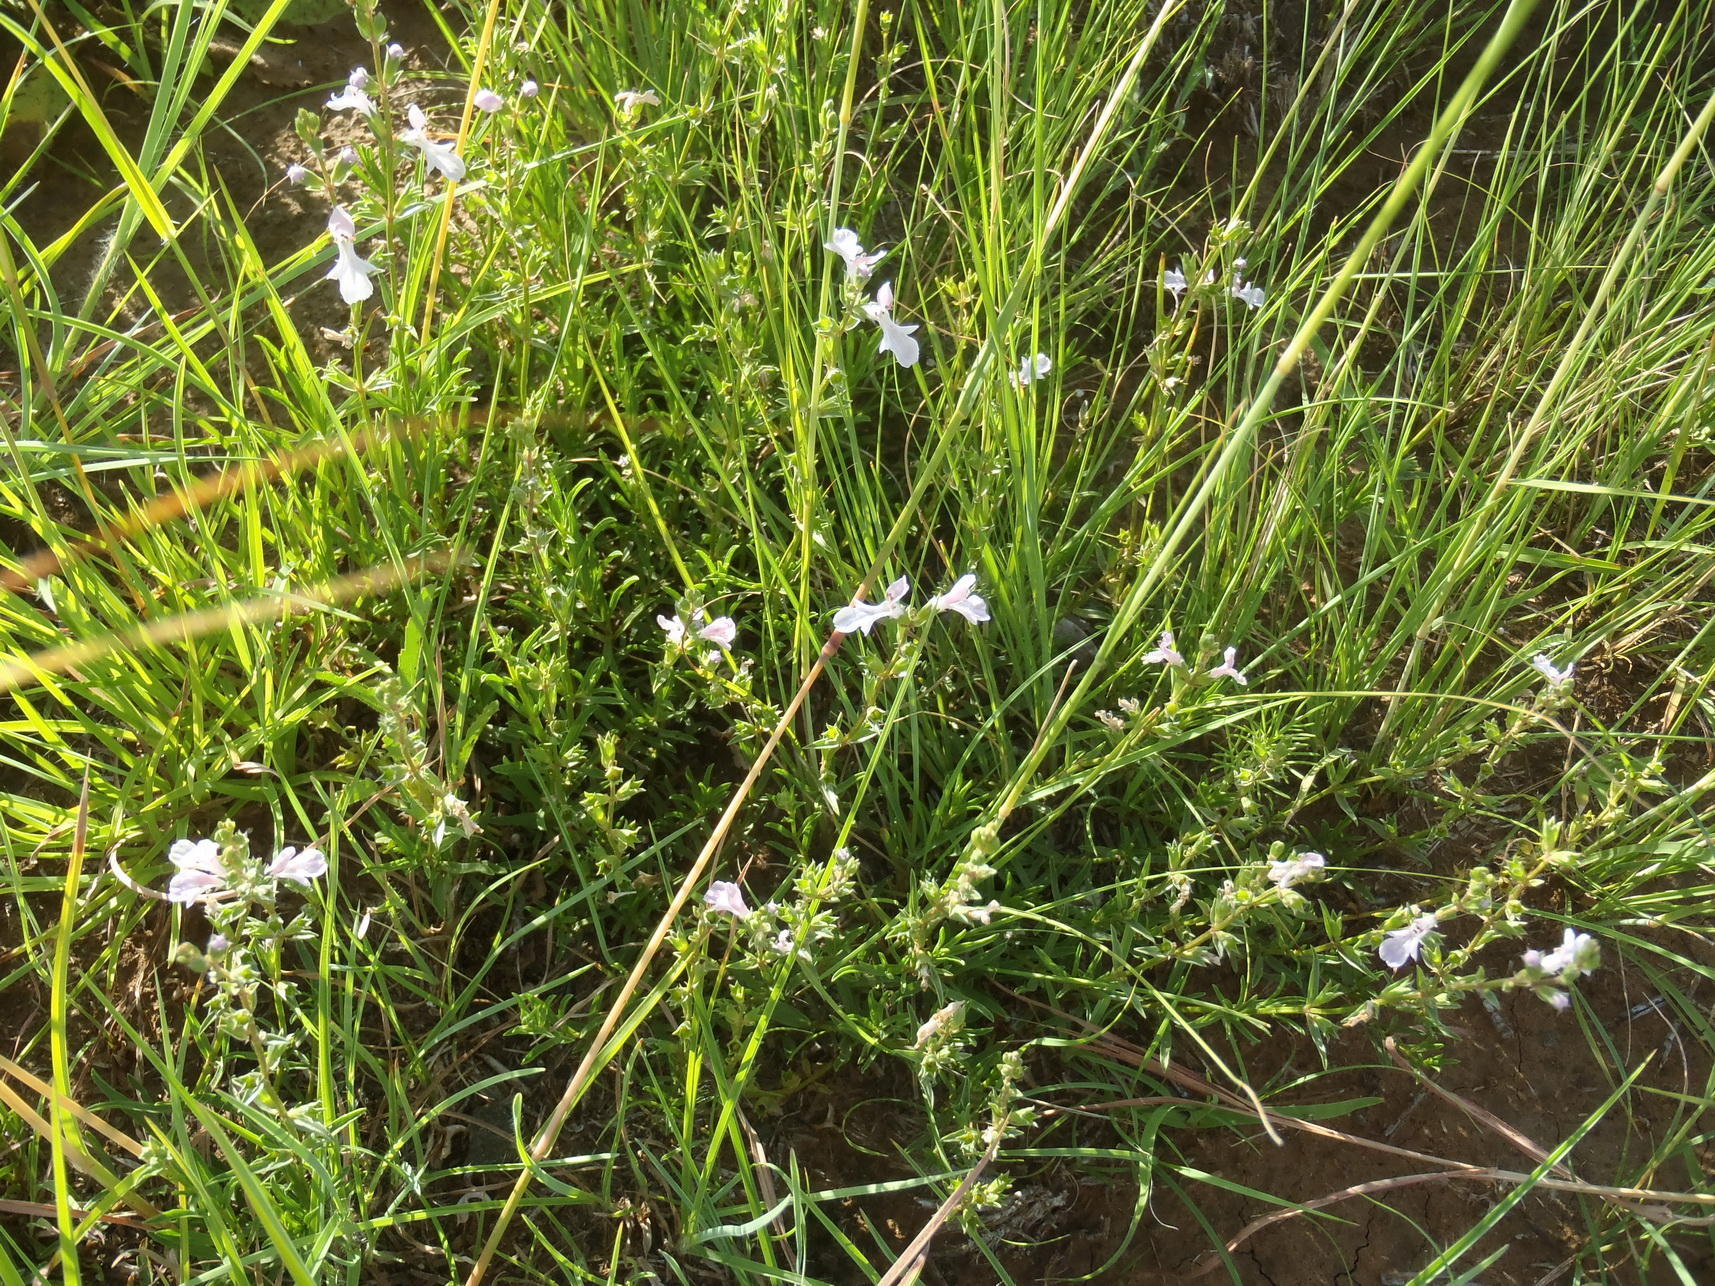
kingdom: Plantae
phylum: Tracheophyta
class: Magnoliopsida
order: Lamiales
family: Lamiaceae
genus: Stachys
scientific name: Stachys hyssopoides
